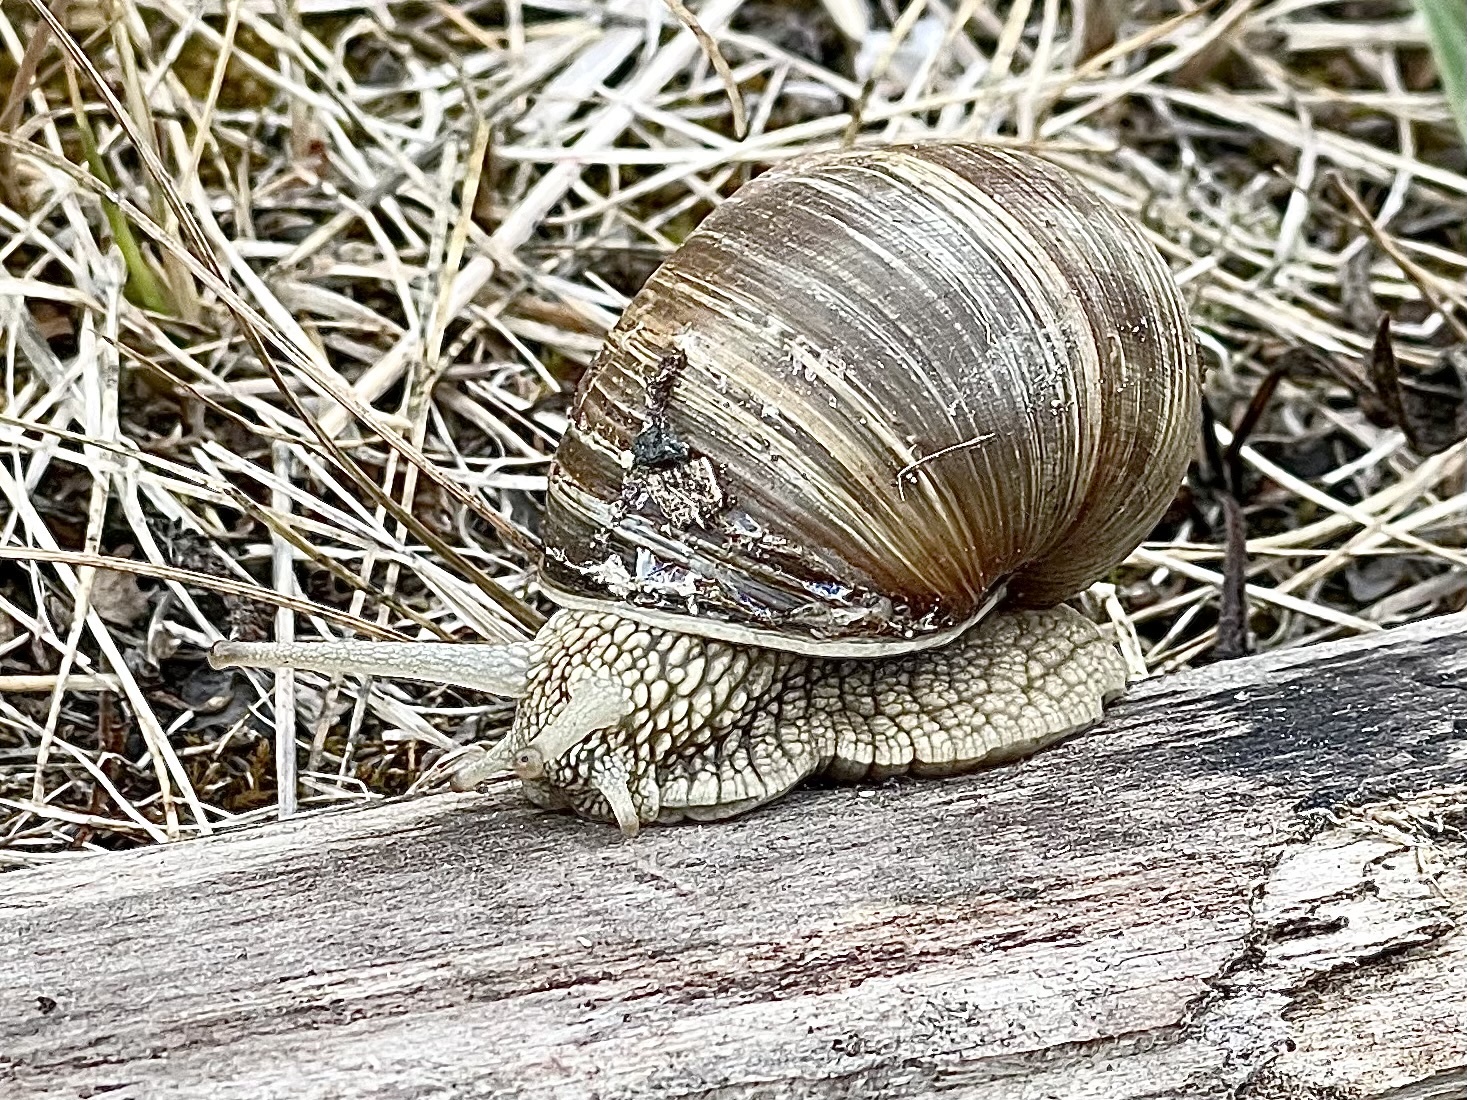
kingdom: Animalia
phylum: Mollusca
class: Gastropoda
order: Stylommatophora
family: Helicidae
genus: Helix
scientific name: Helix pomatia
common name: Roman snail
